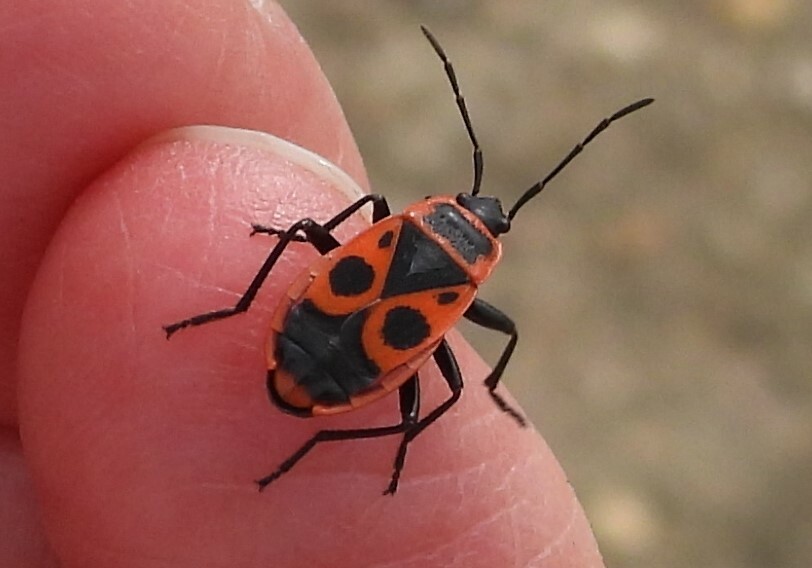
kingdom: Animalia
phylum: Arthropoda
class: Insecta
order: Hemiptera
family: Pyrrhocoridae
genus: Pyrrhocoris
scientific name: Pyrrhocoris apterus
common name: Firebug
